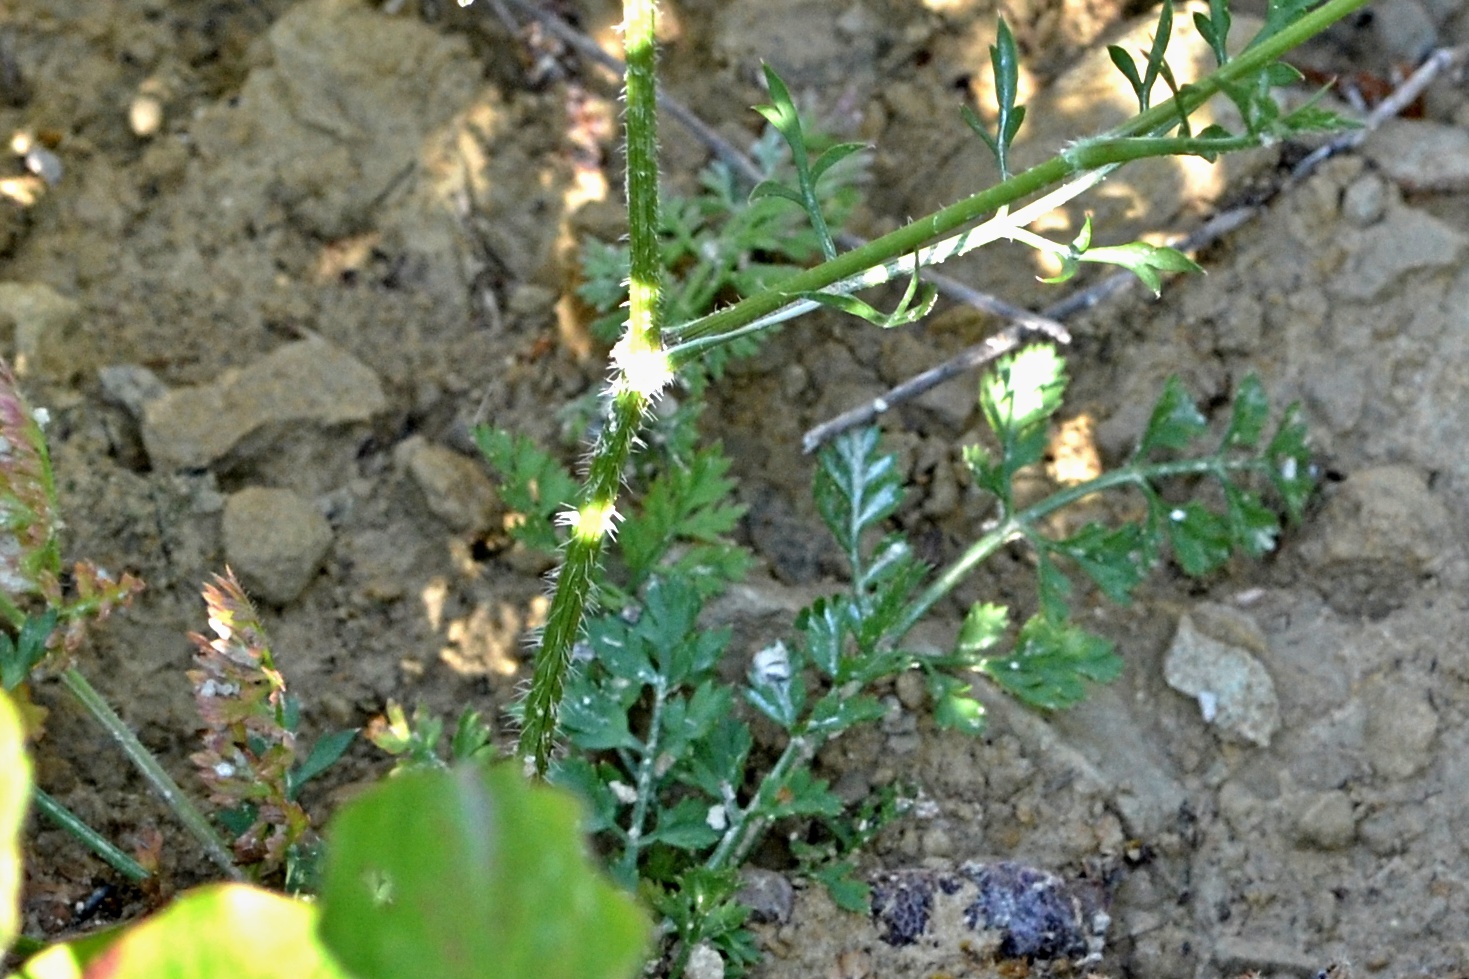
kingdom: Plantae
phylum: Tracheophyta
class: Magnoliopsida
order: Apiales
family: Apiaceae
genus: Daucus
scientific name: Daucus carota
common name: Wild carrot
